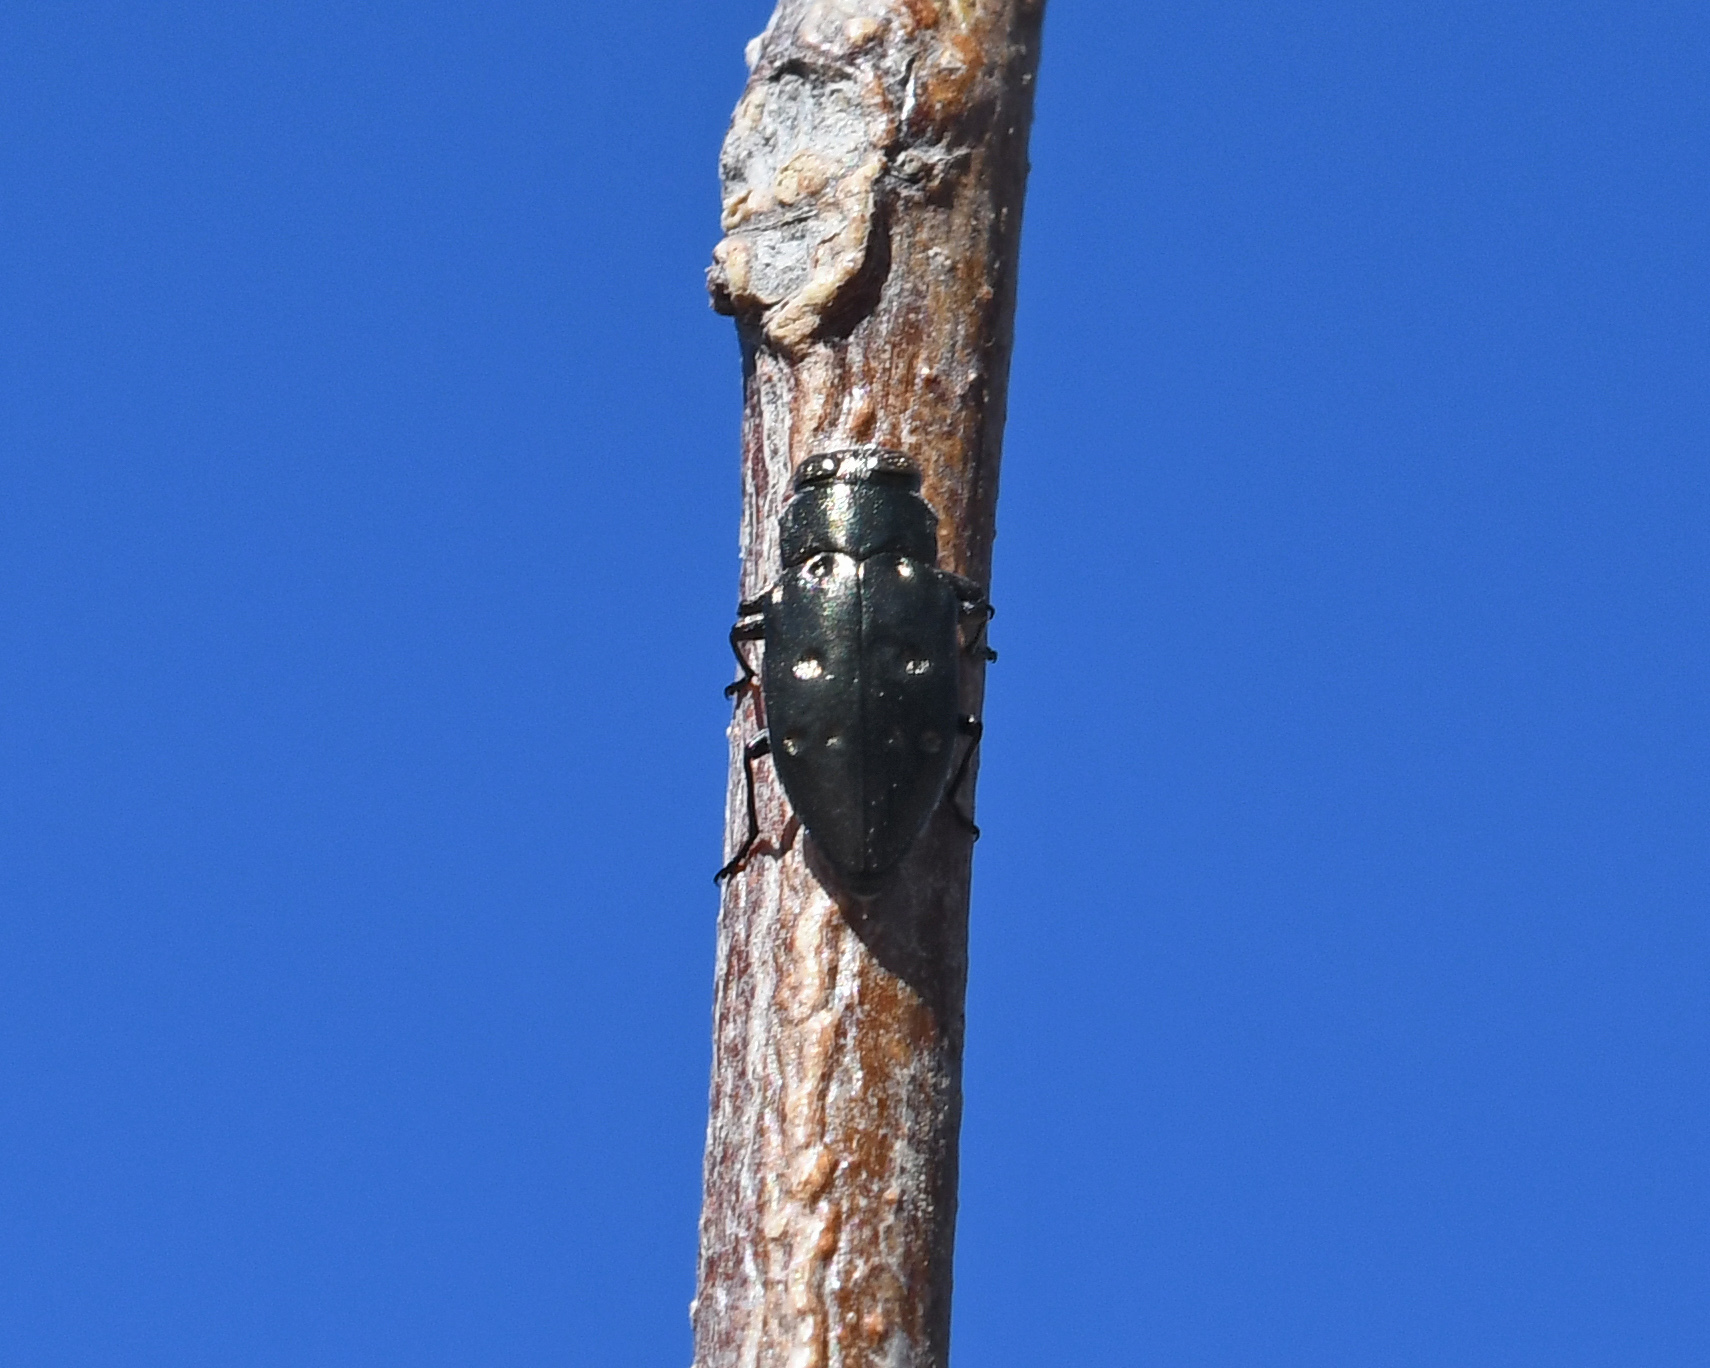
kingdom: Animalia
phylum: Arthropoda
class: Insecta
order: Coleoptera
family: Buprestidae
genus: Chrysobothris
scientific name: Chrysobothris megacephala
